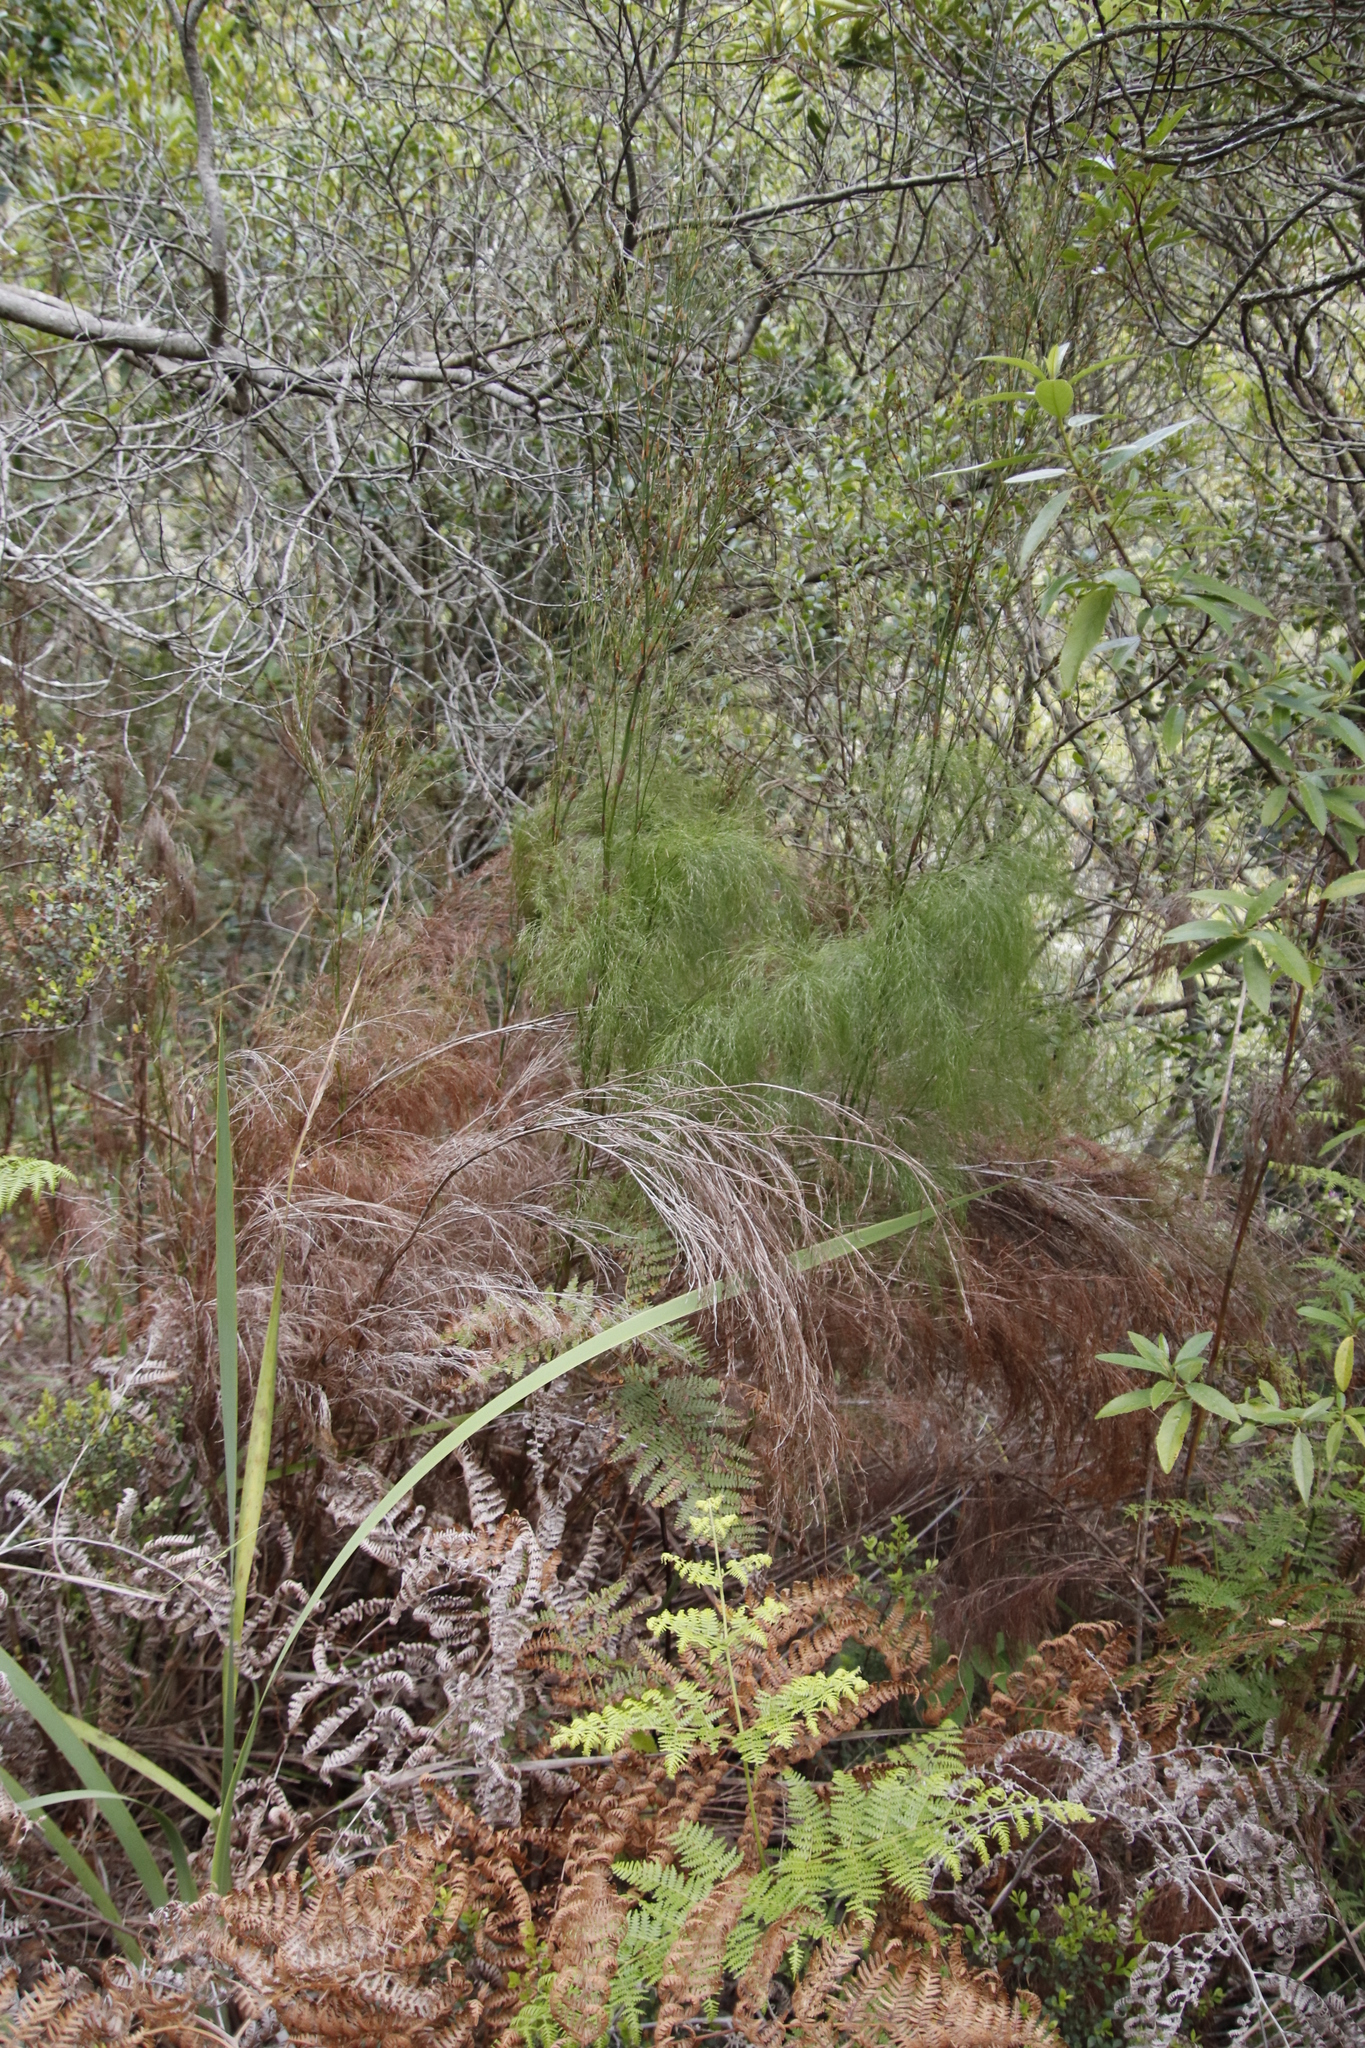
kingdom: Plantae
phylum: Tracheophyta
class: Liliopsida
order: Poales
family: Restionaceae
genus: Restio
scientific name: Restio paniculatus
